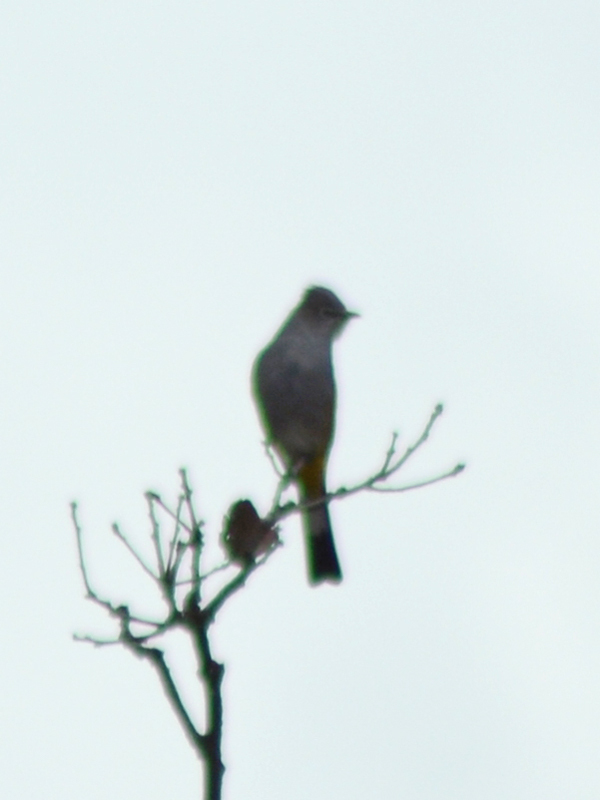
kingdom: Animalia
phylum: Chordata
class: Aves
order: Passeriformes
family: Ptilogonatidae
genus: Ptilogonys
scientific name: Ptilogonys cinereus
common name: Gray silky-flycatcher
